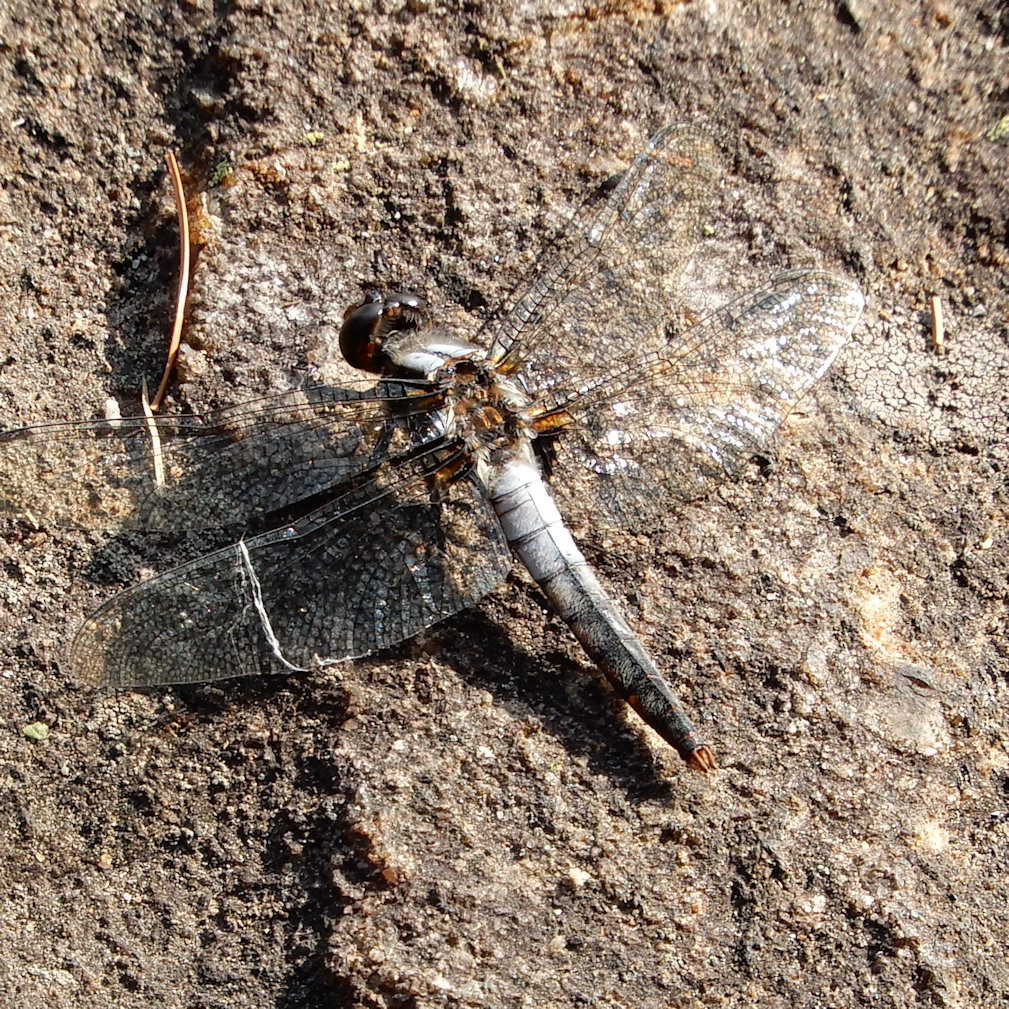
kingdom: Animalia
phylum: Arthropoda
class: Insecta
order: Odonata
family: Libellulidae
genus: Ladona
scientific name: Ladona julia
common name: Chalk-fronted corporal
